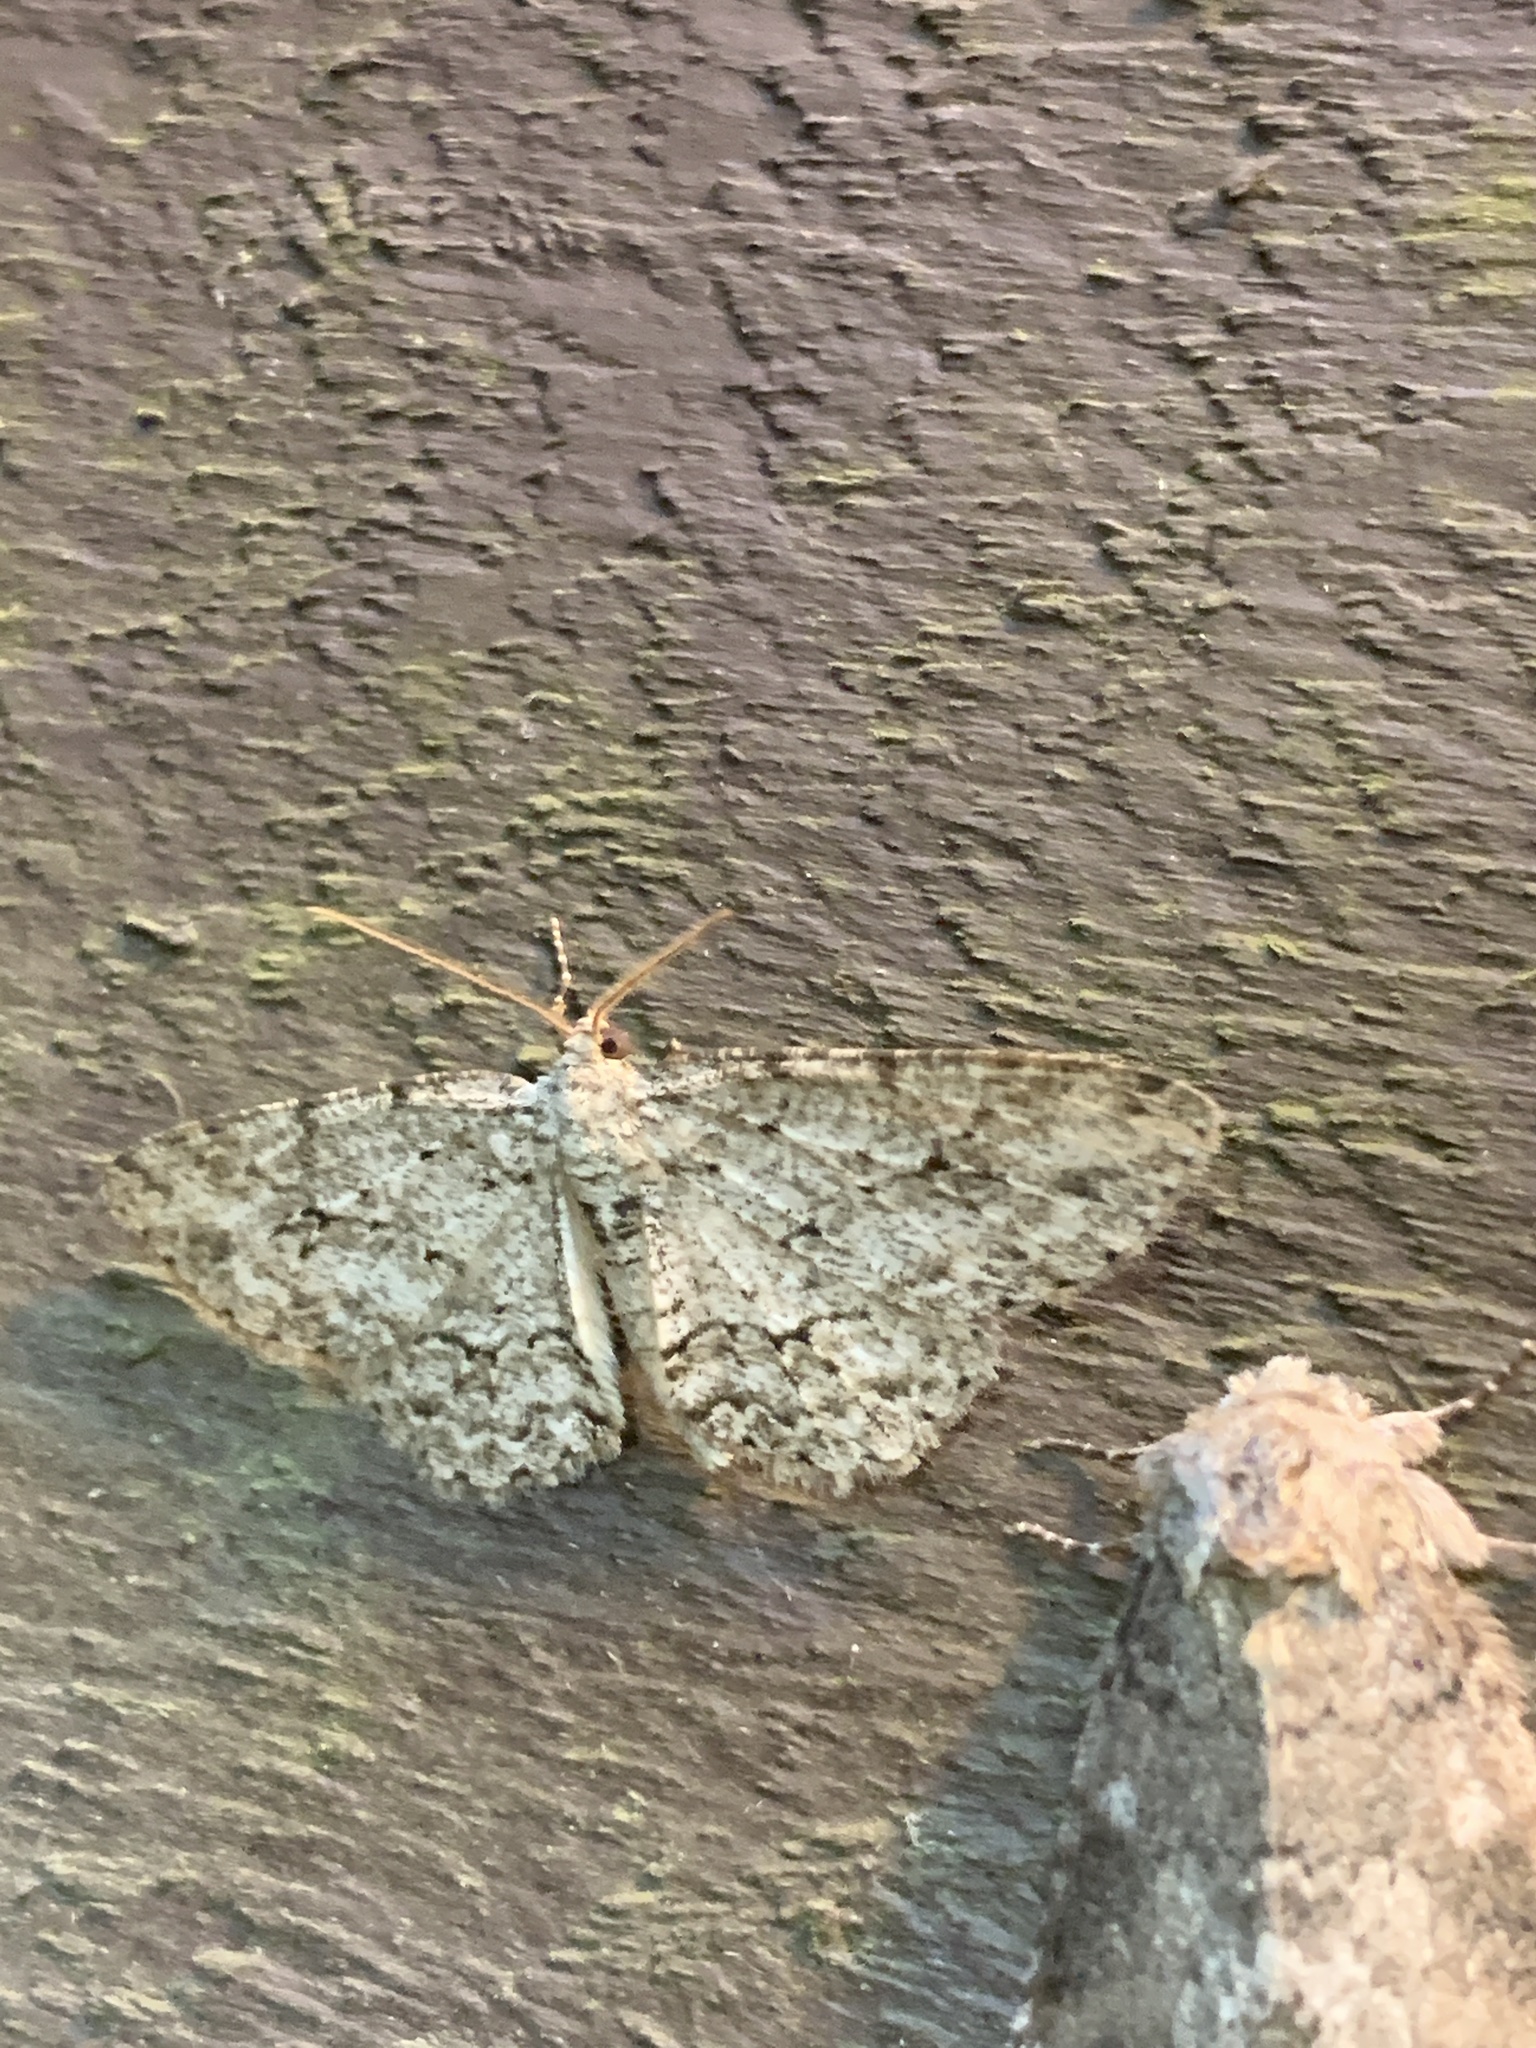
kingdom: Animalia
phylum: Arthropoda
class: Insecta
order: Lepidoptera
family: Geometridae
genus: Ectropis
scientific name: Ectropis crepuscularia
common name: Engrailed
